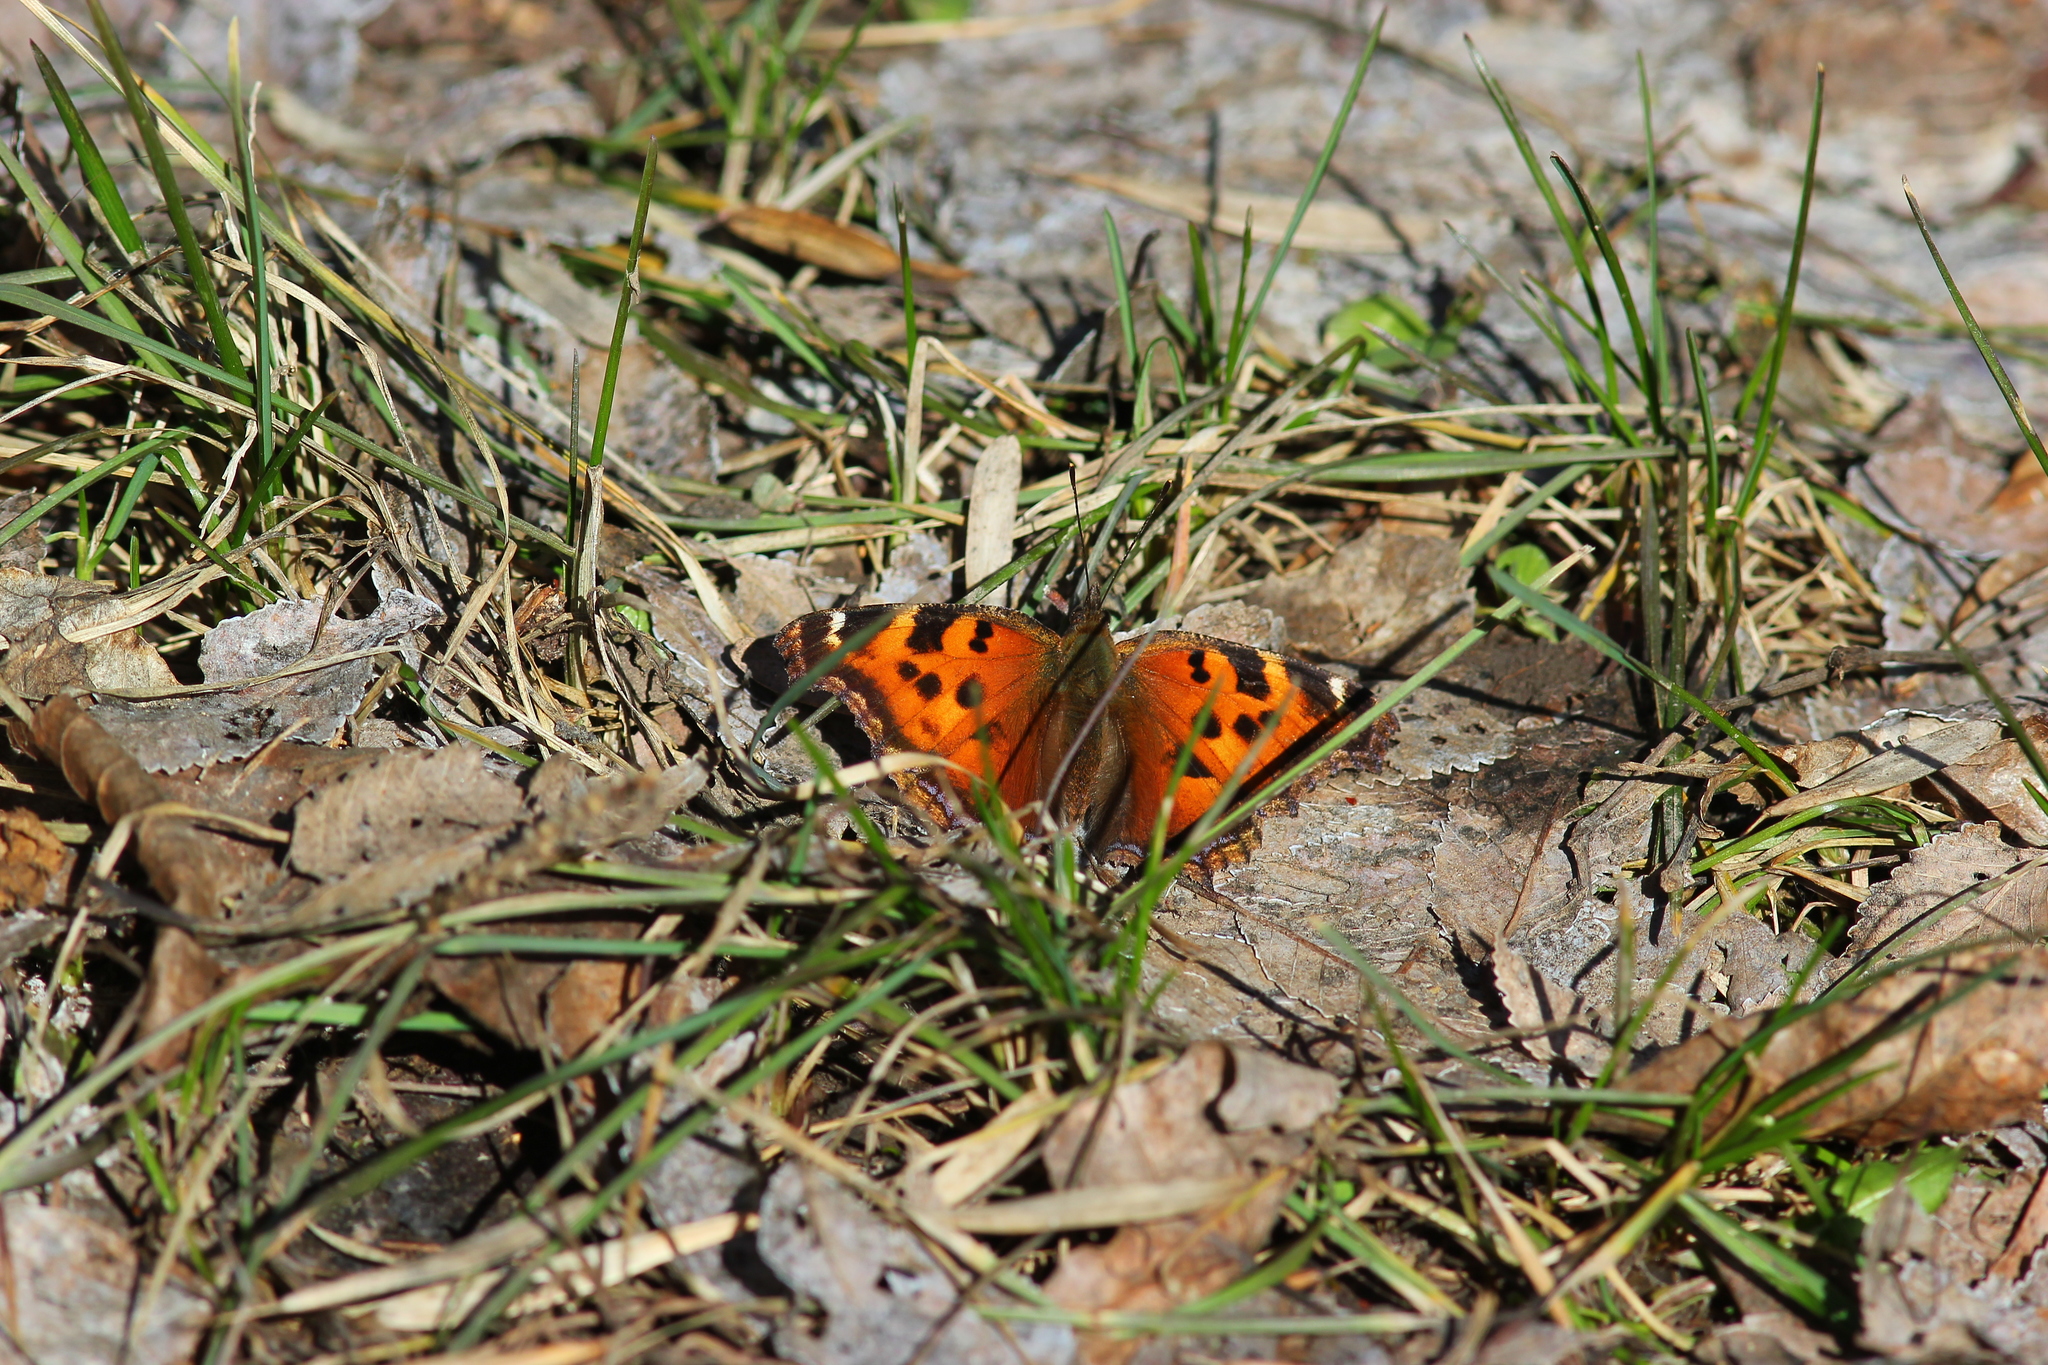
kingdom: Animalia
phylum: Arthropoda
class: Insecta
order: Lepidoptera
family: Nymphalidae
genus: Nymphalis
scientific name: Nymphalis xanthomelas
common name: Scarce tortoiseshell
